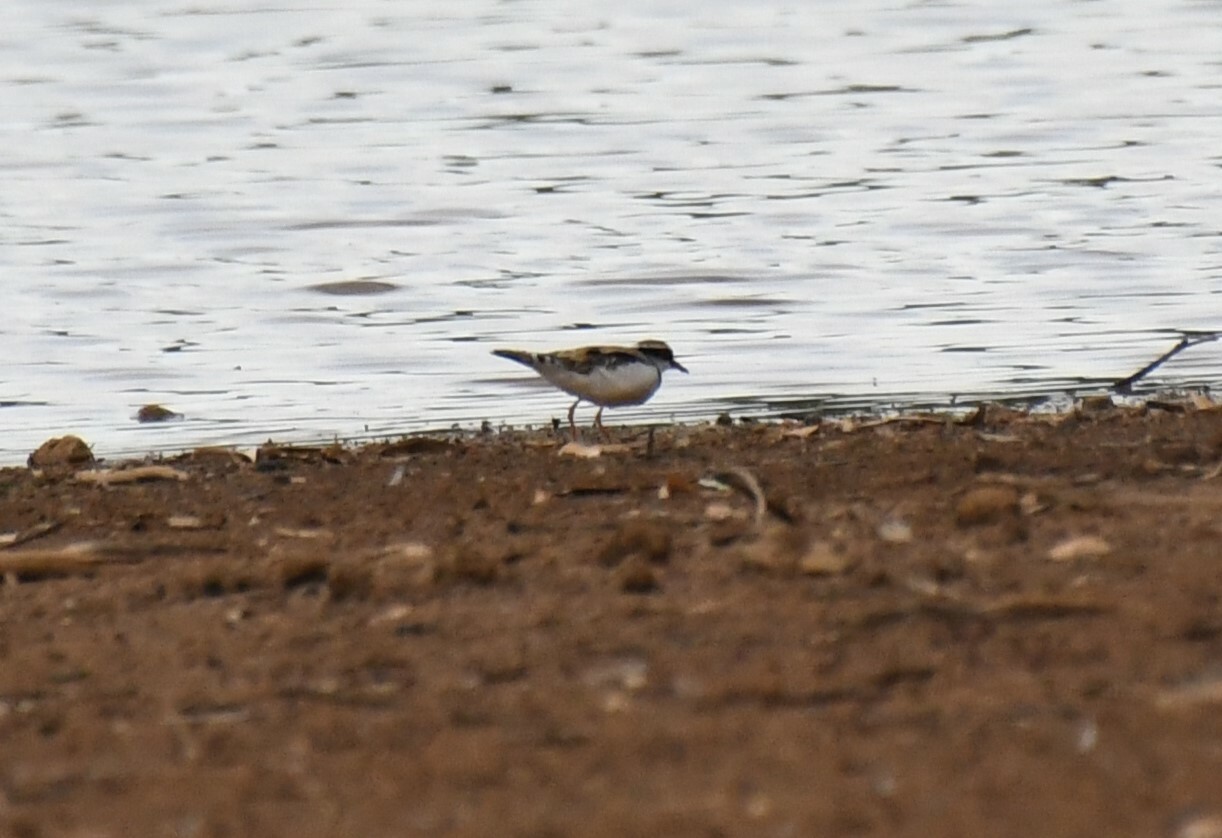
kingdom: Animalia
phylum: Chordata
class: Aves
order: Charadriiformes
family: Charadriidae
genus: Elseyornis
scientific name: Elseyornis melanops
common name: Black-fronted dotterel
